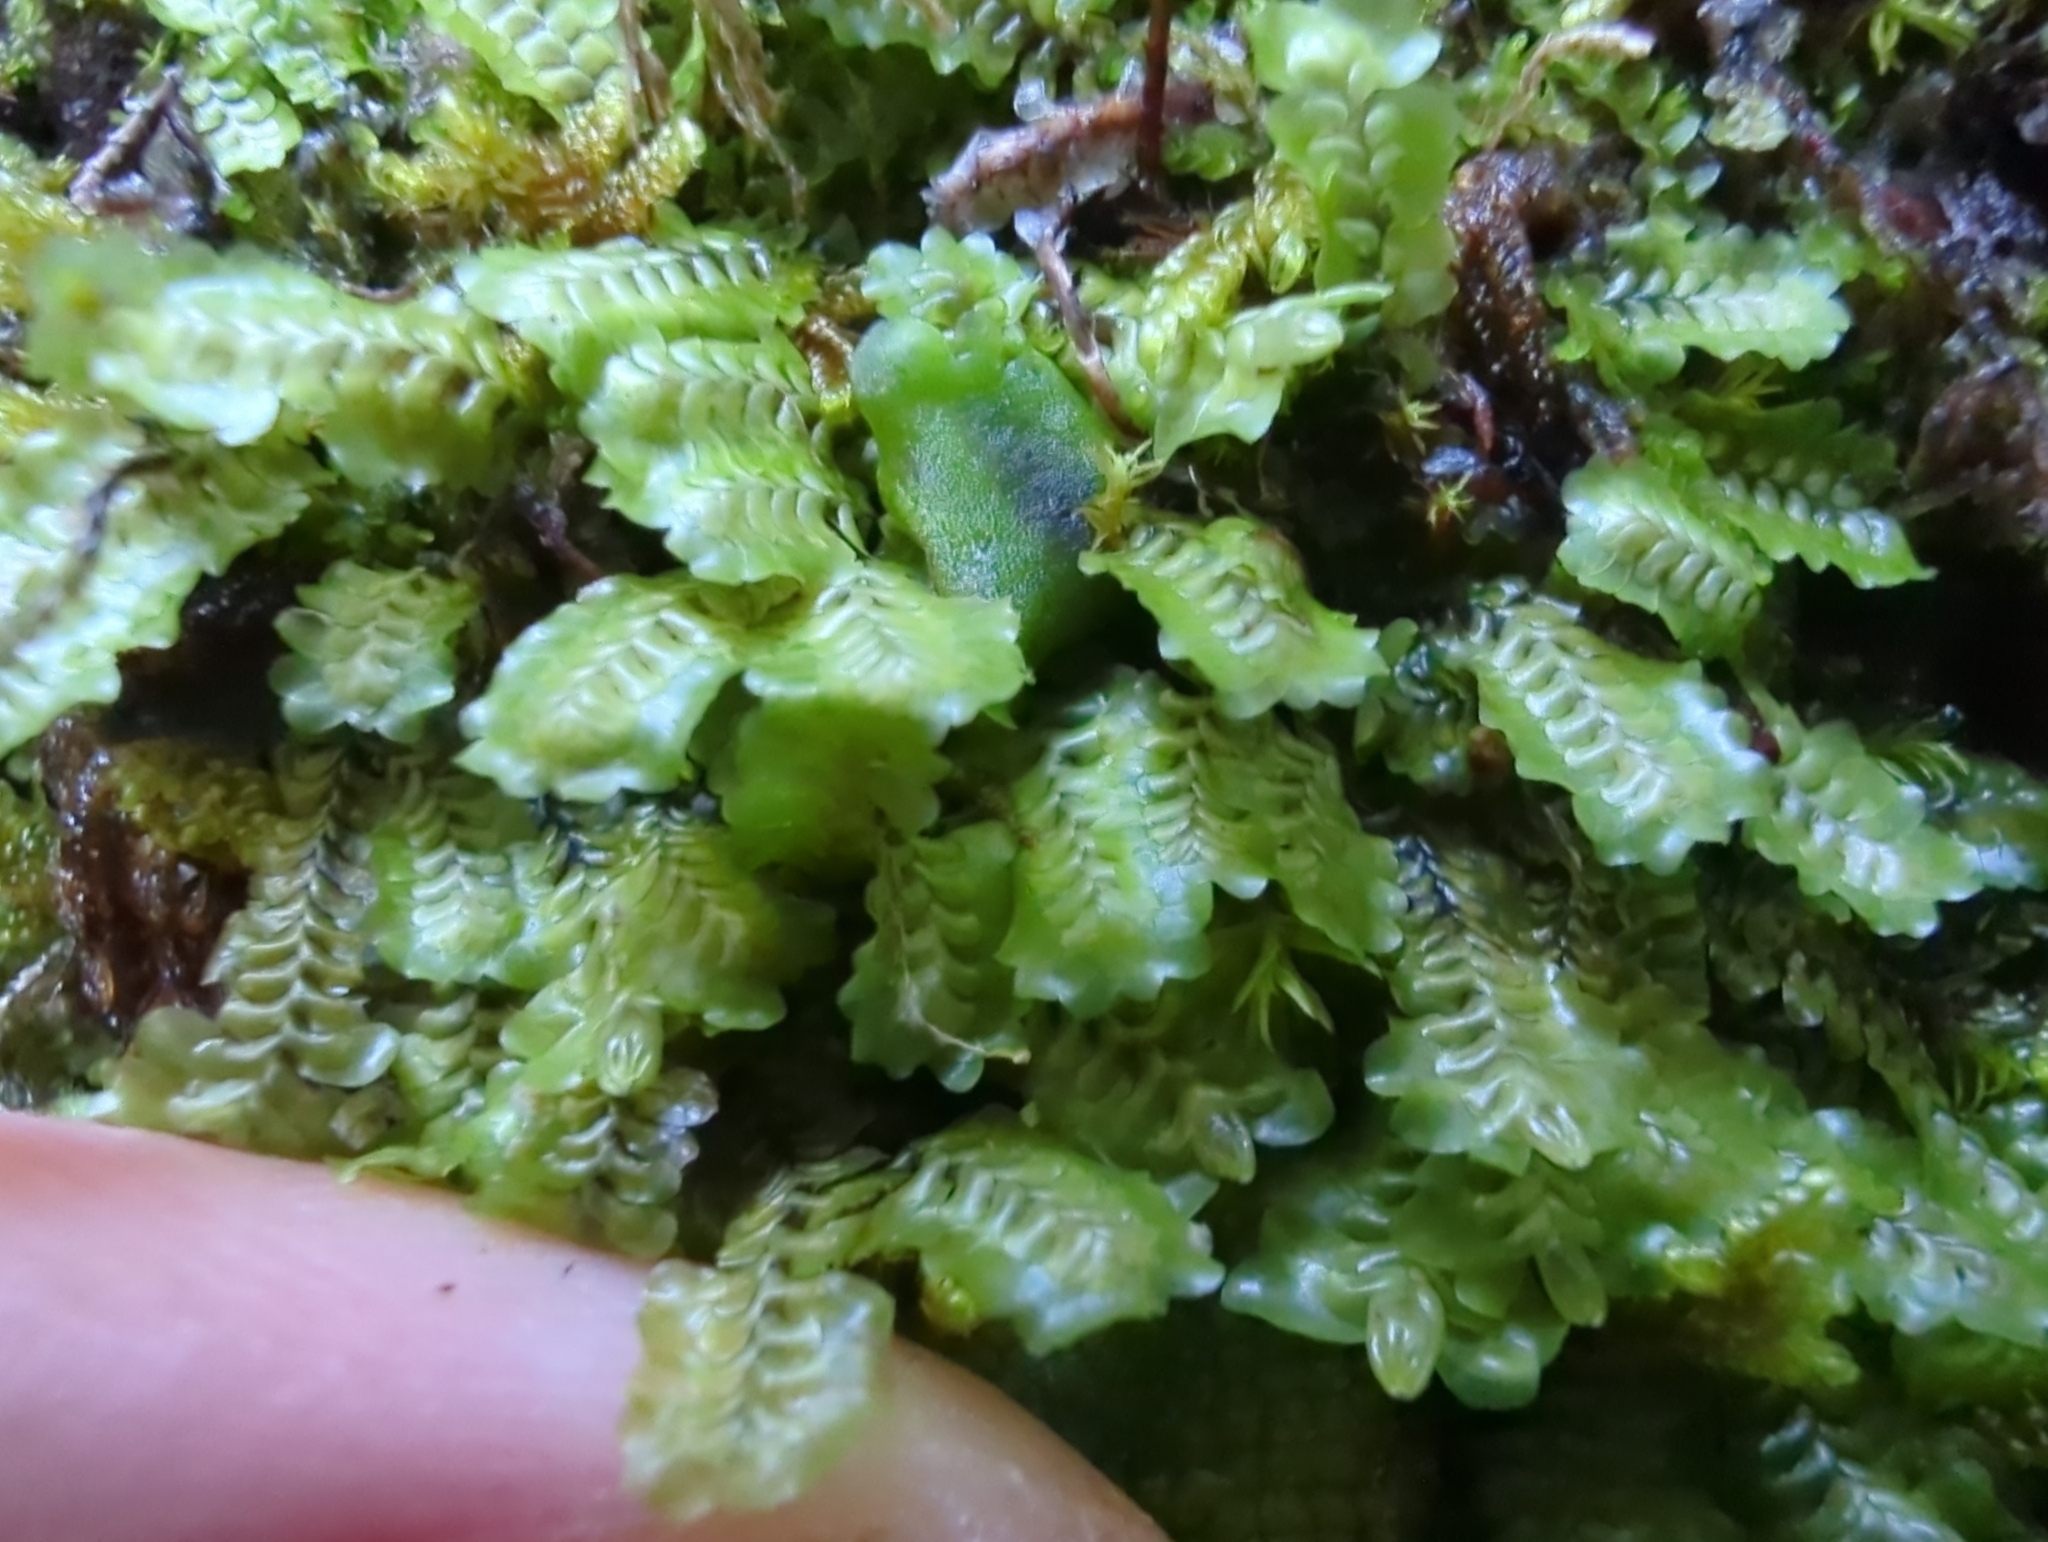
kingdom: Plantae
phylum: Marchantiophyta
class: Jungermanniopsida
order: Jungermanniales
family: Scapaniaceae
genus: Macrodiplophyllum
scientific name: Macrodiplophyllum flaccidum
